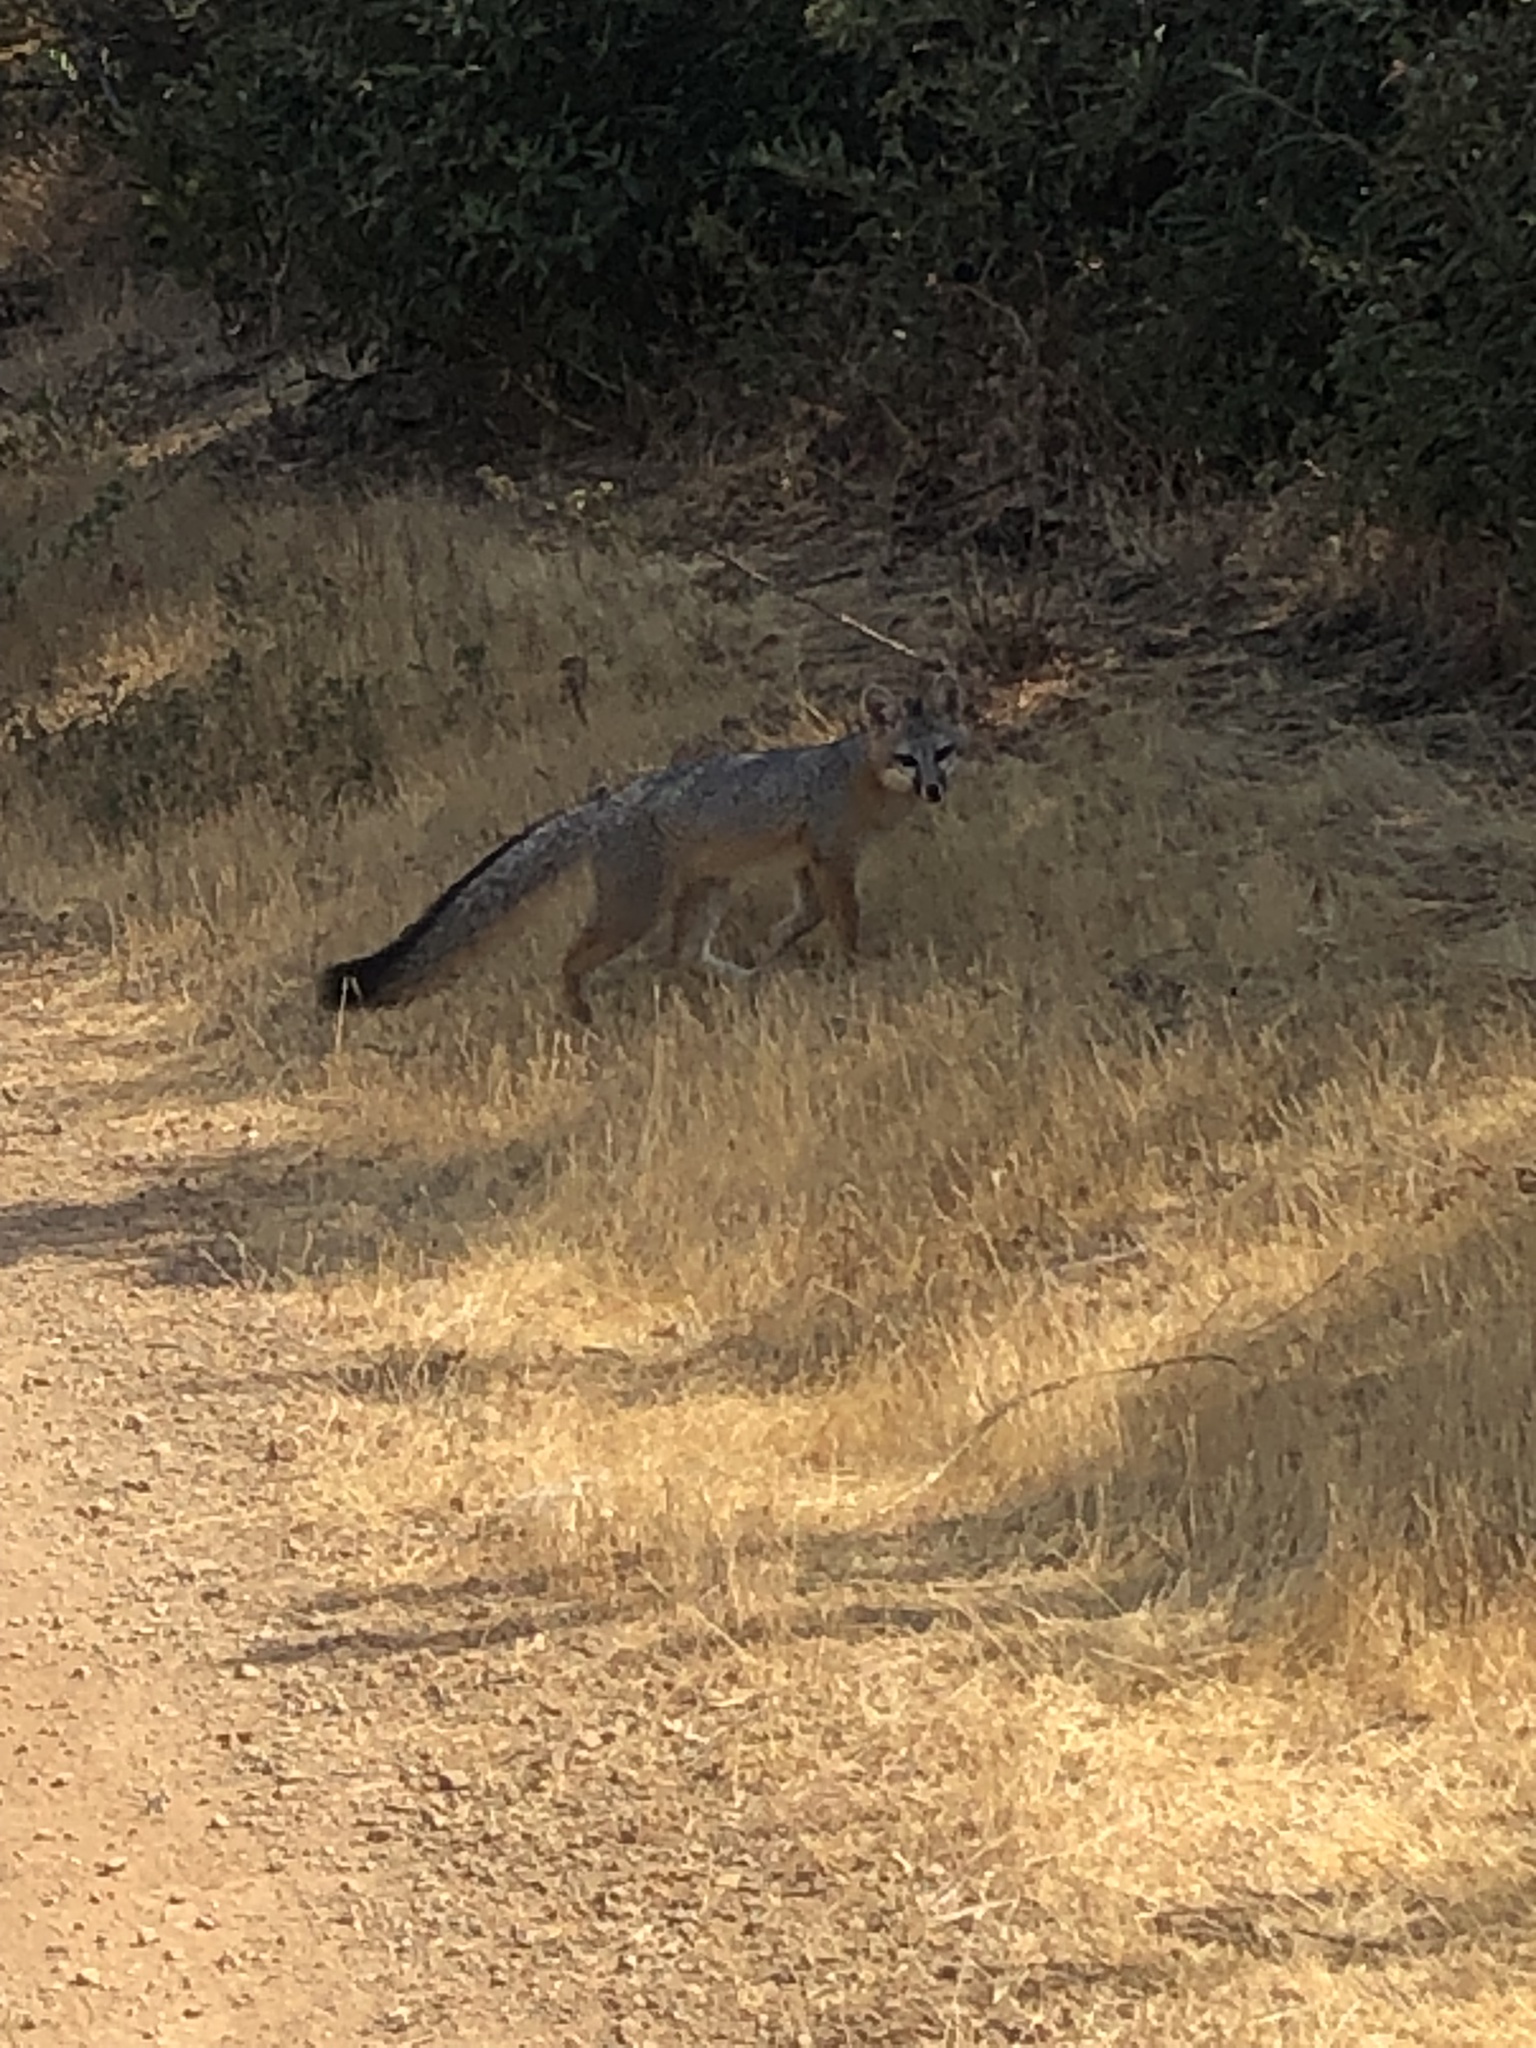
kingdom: Animalia
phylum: Chordata
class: Mammalia
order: Carnivora
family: Canidae
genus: Urocyon
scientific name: Urocyon cinereoargenteus
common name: Gray fox
